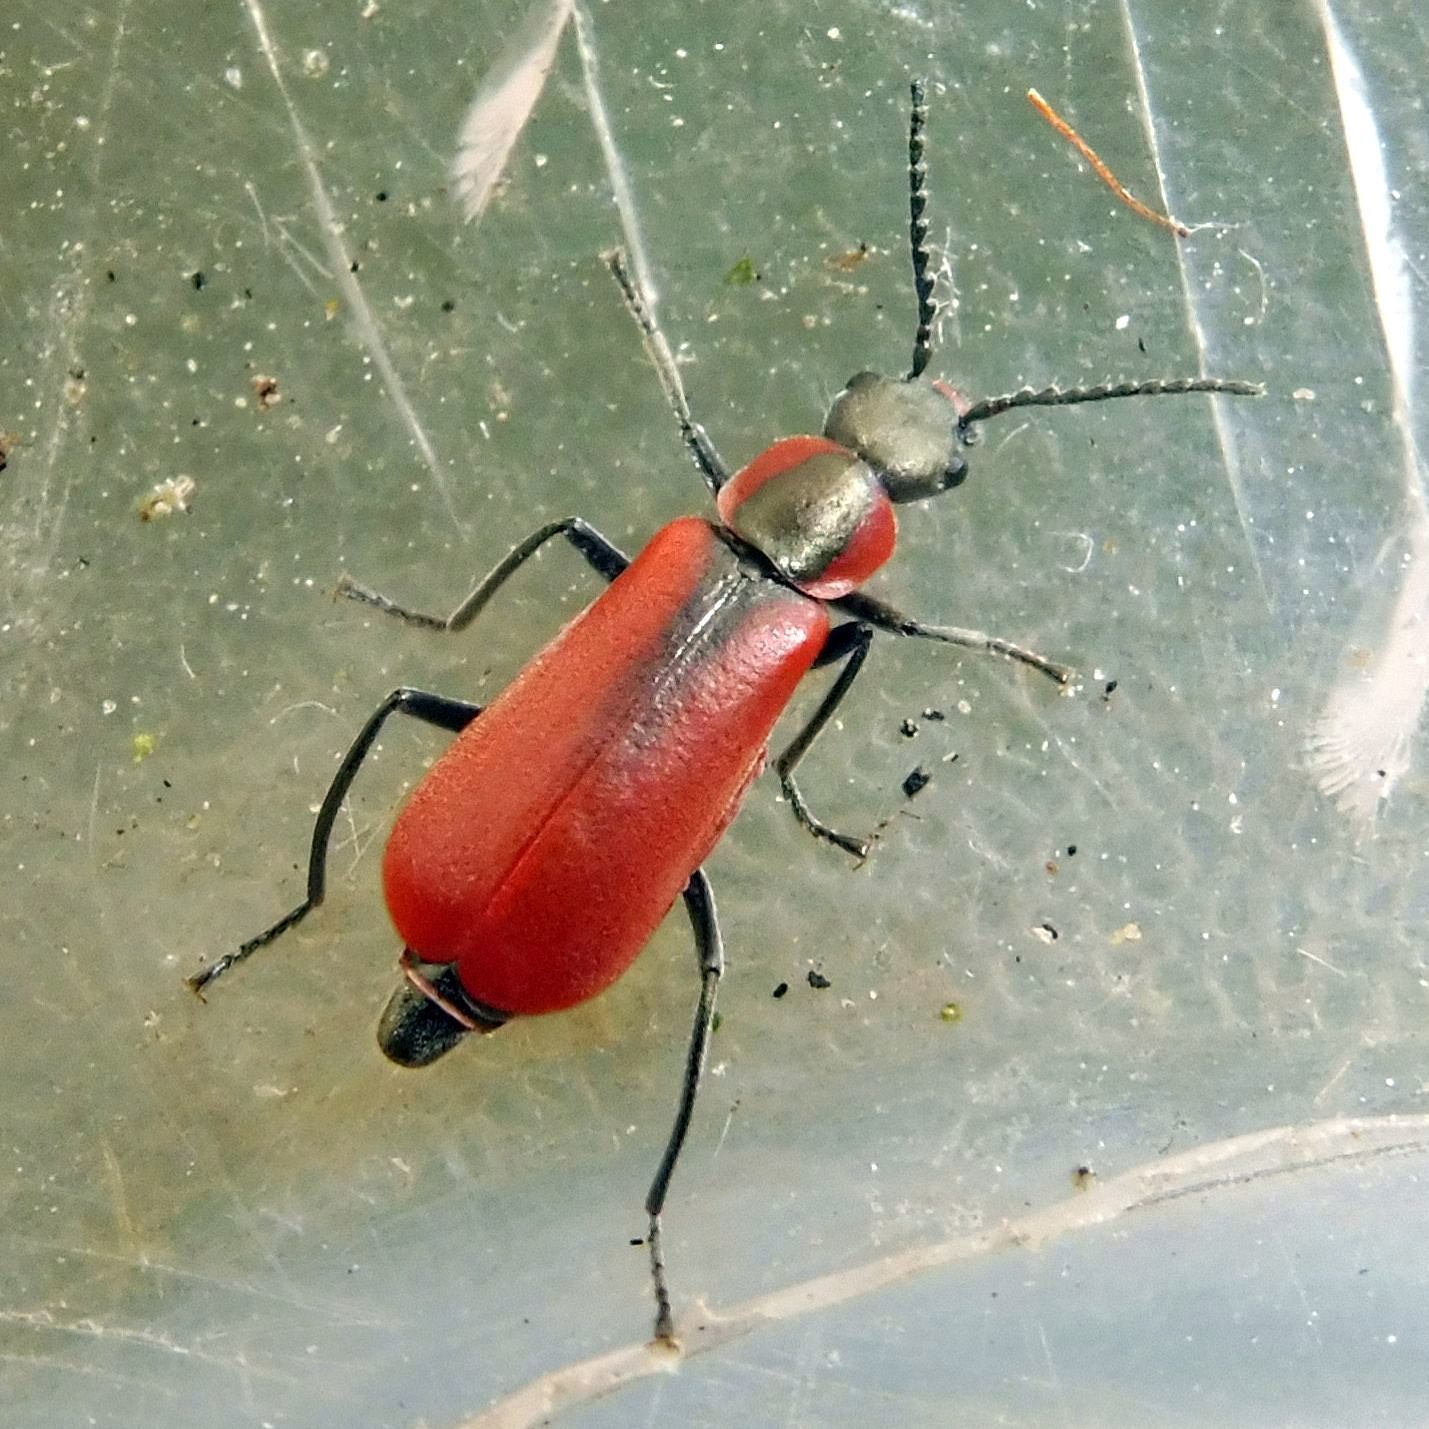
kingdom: Animalia
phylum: Arthropoda
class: Insecta
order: Coleoptera
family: Melyridae
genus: Anthocomus
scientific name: Anthocomus rufus
